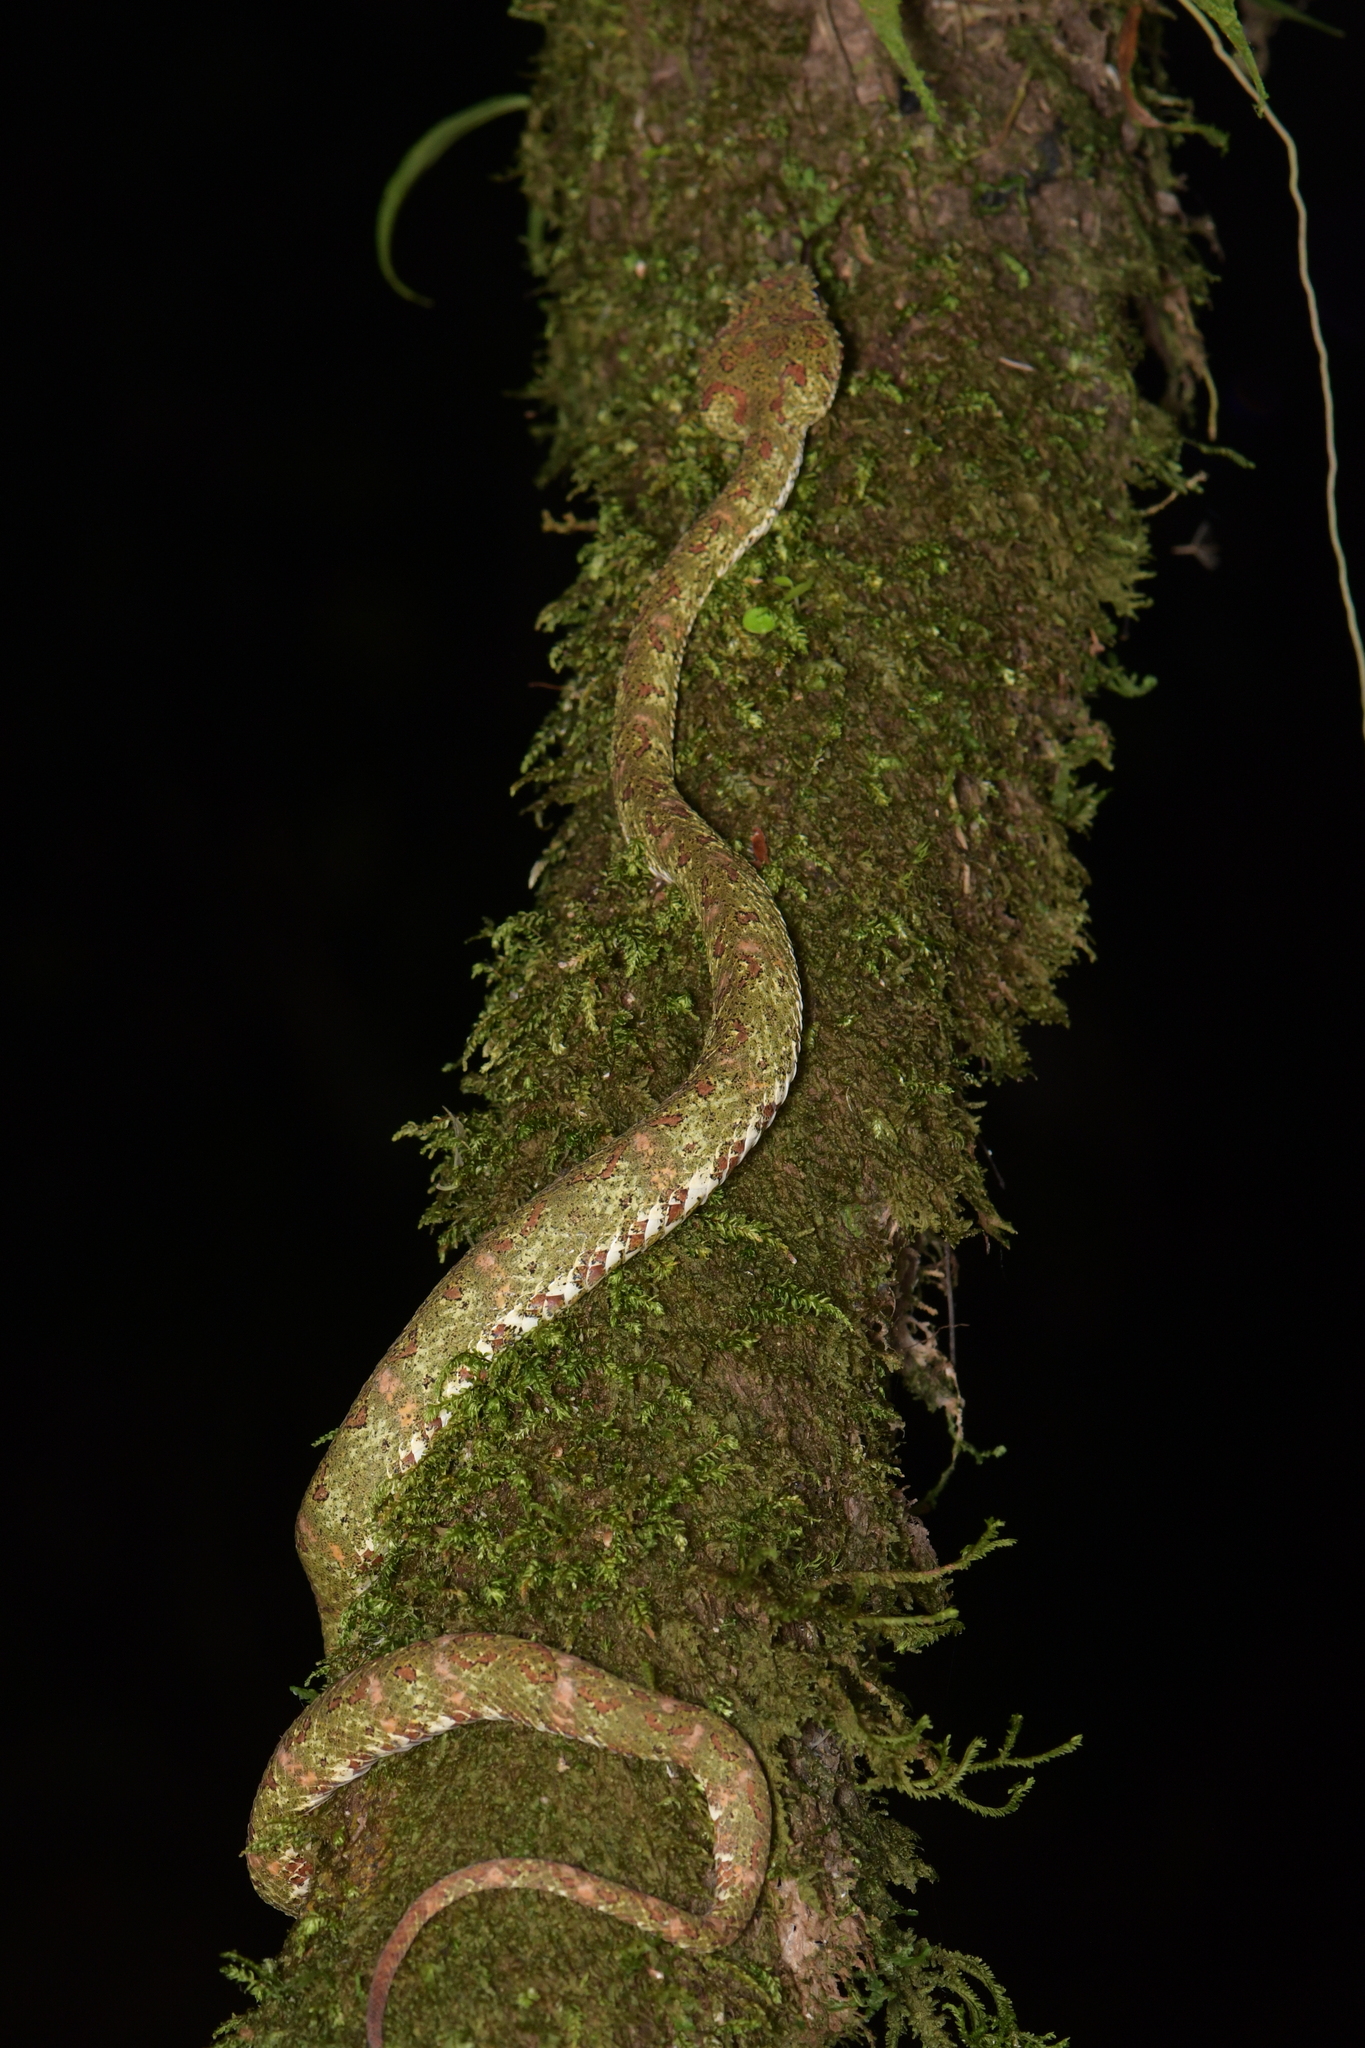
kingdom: Animalia
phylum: Chordata
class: Squamata
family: Viperidae
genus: Bothriechis
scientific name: Bothriechis schlegelii
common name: Eyelash viper
